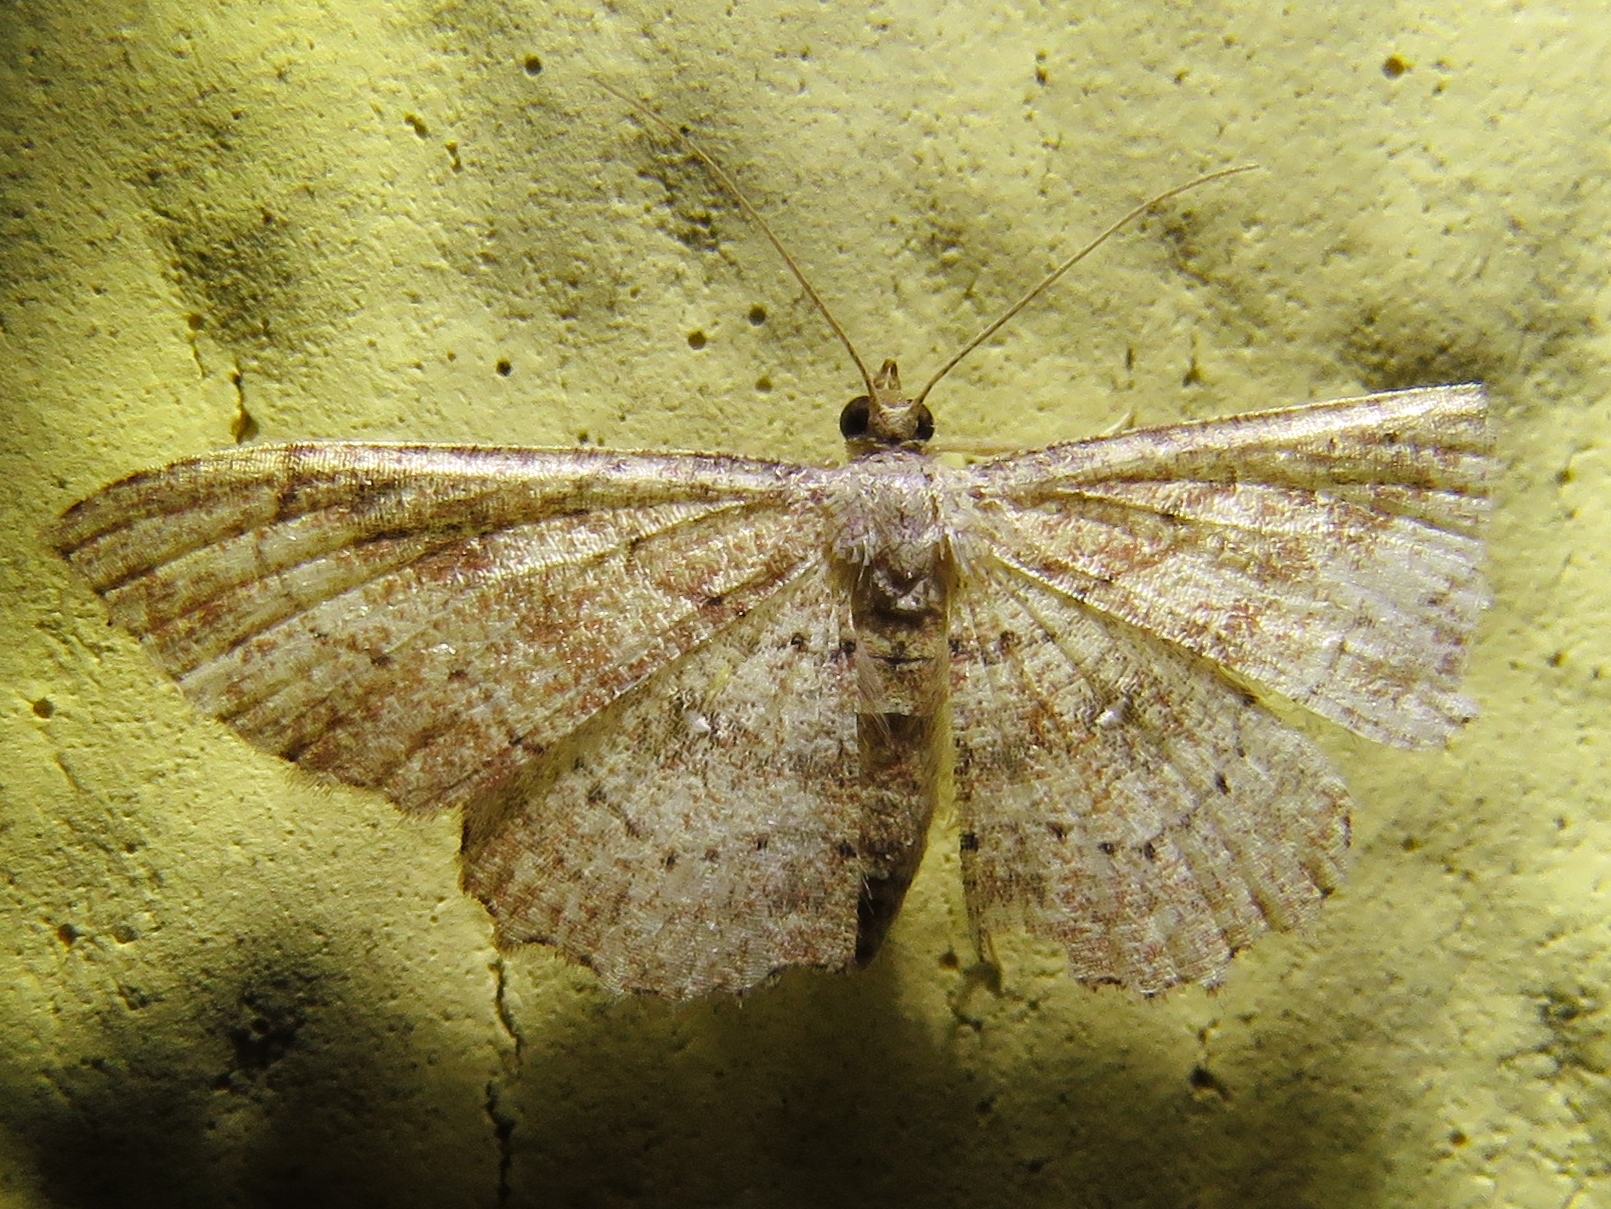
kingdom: Animalia
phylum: Arthropoda
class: Insecta
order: Lepidoptera
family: Geometridae
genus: Cyclophora
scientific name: Cyclophora nanaria
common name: Cankerworm
